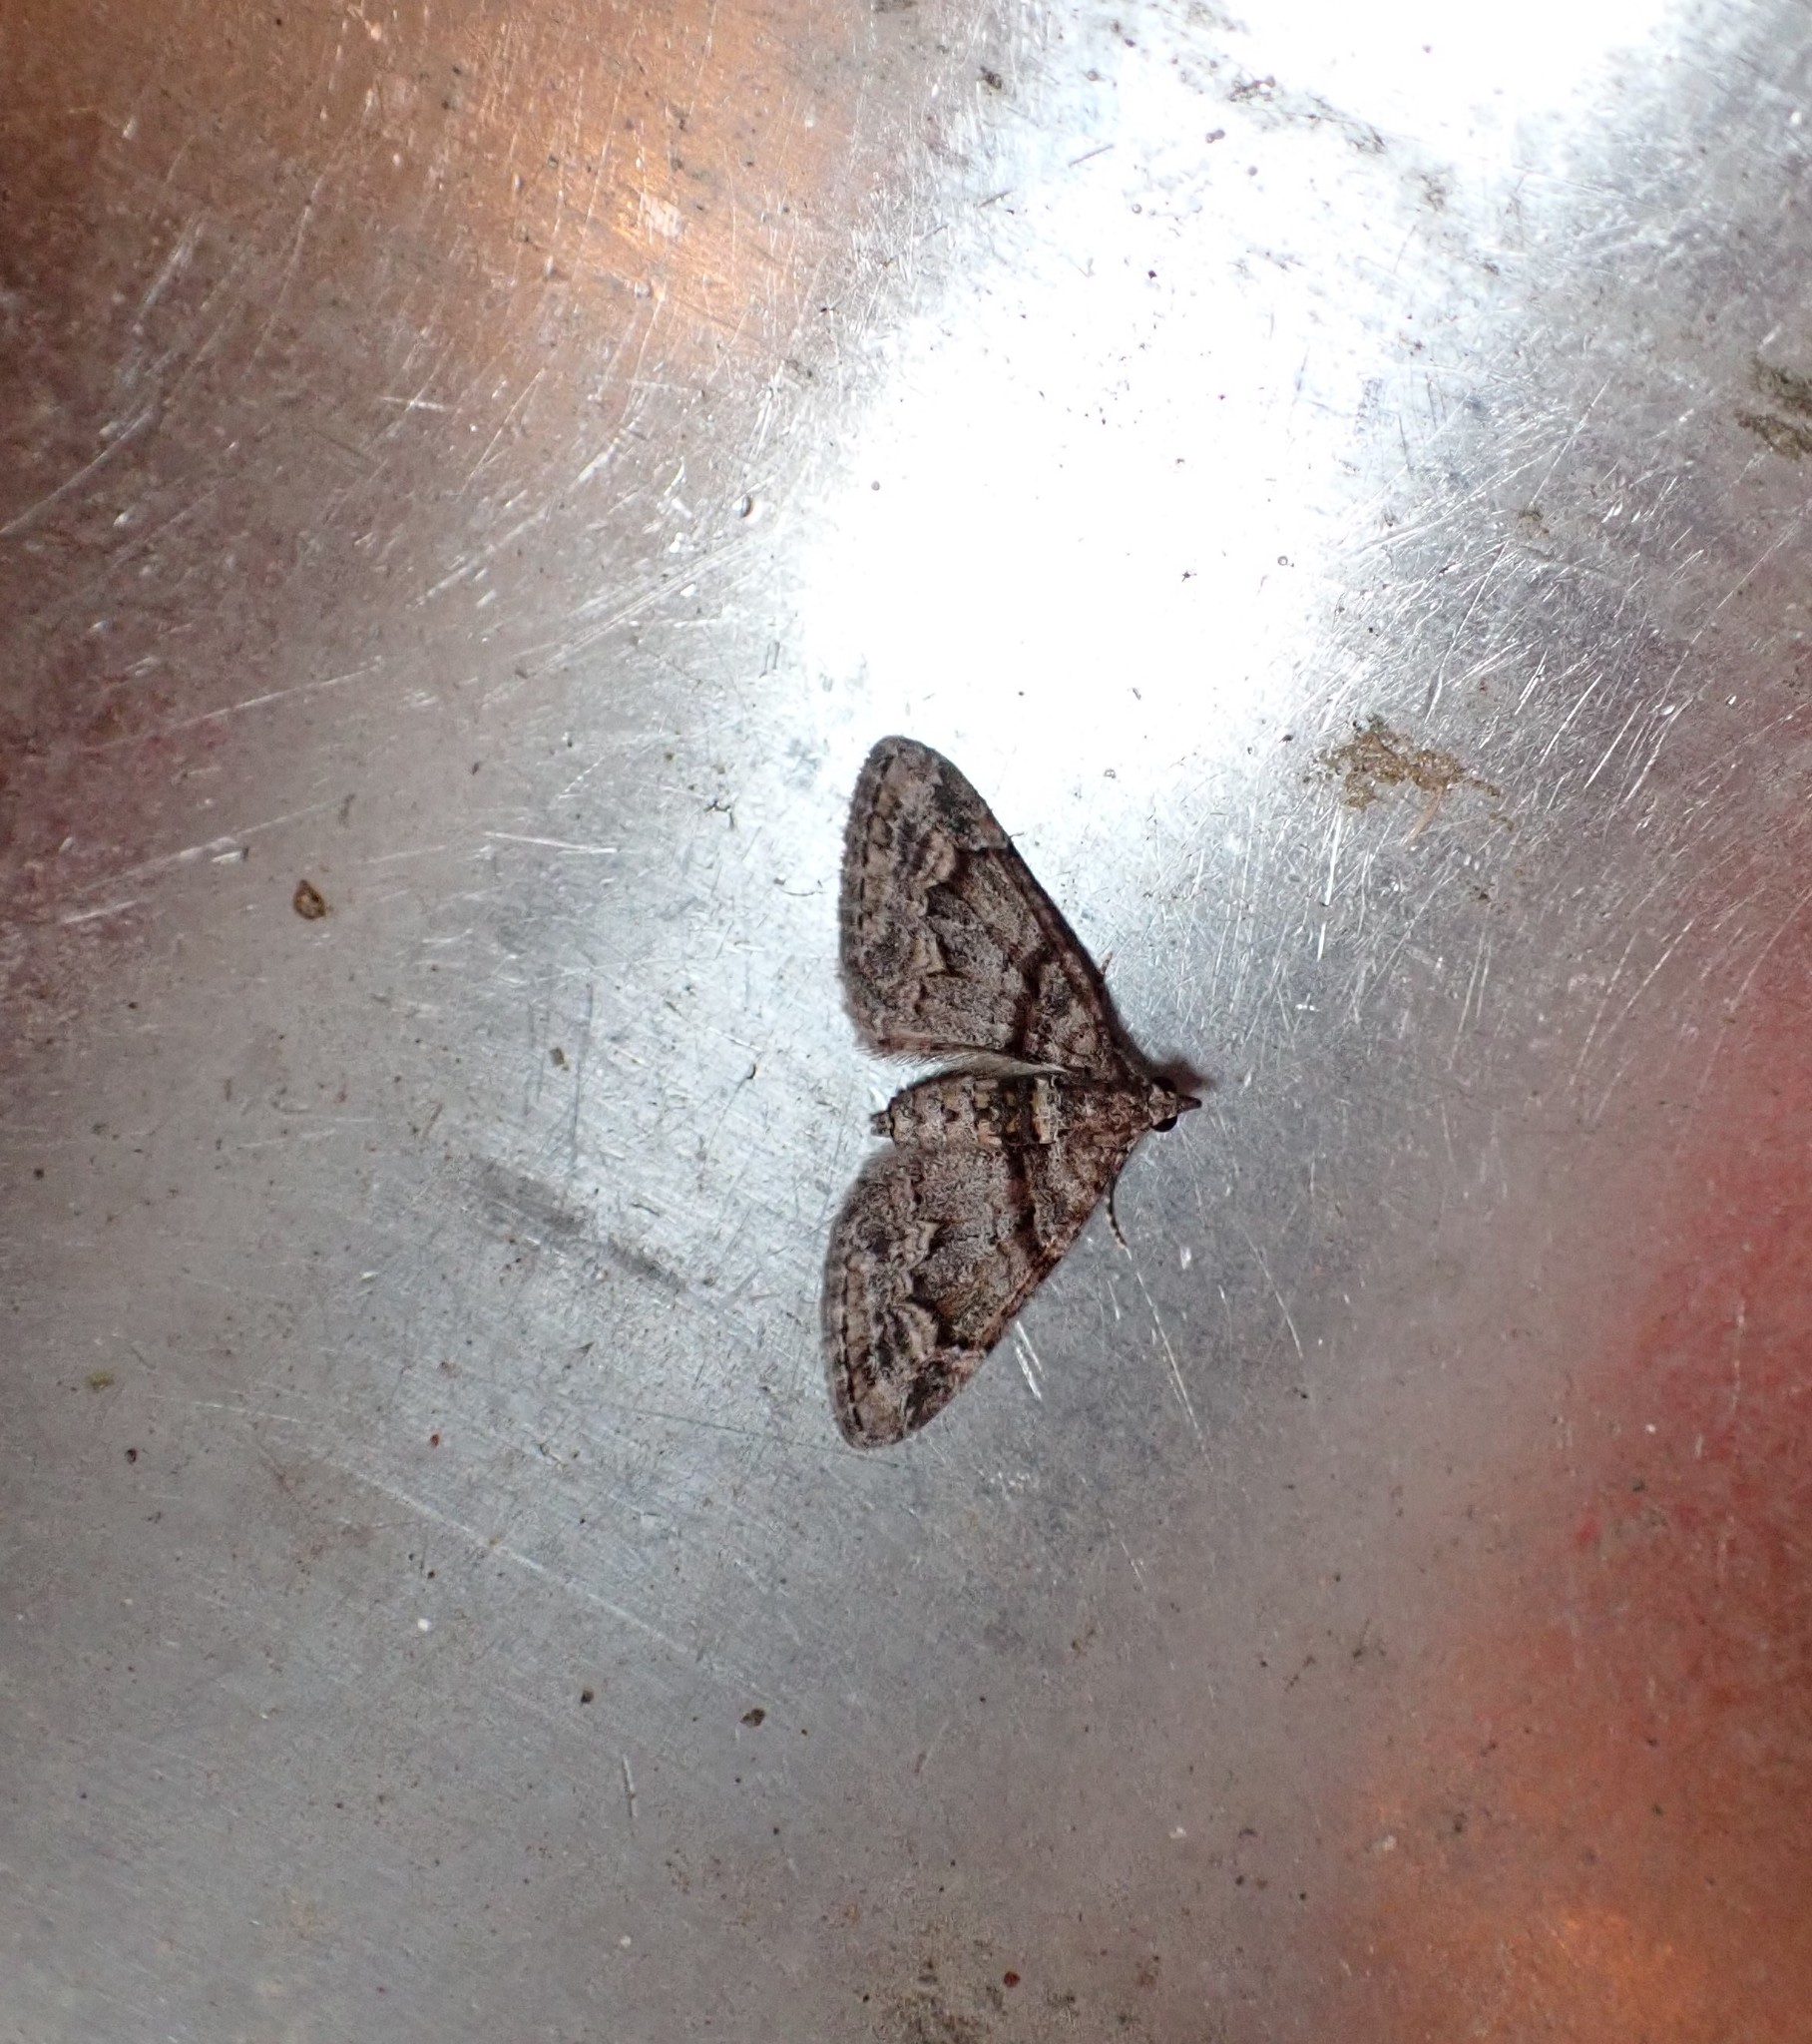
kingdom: Animalia
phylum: Arthropoda
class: Insecta
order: Lepidoptera
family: Geometridae
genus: Phrissogonus
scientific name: Phrissogonus laticostata
